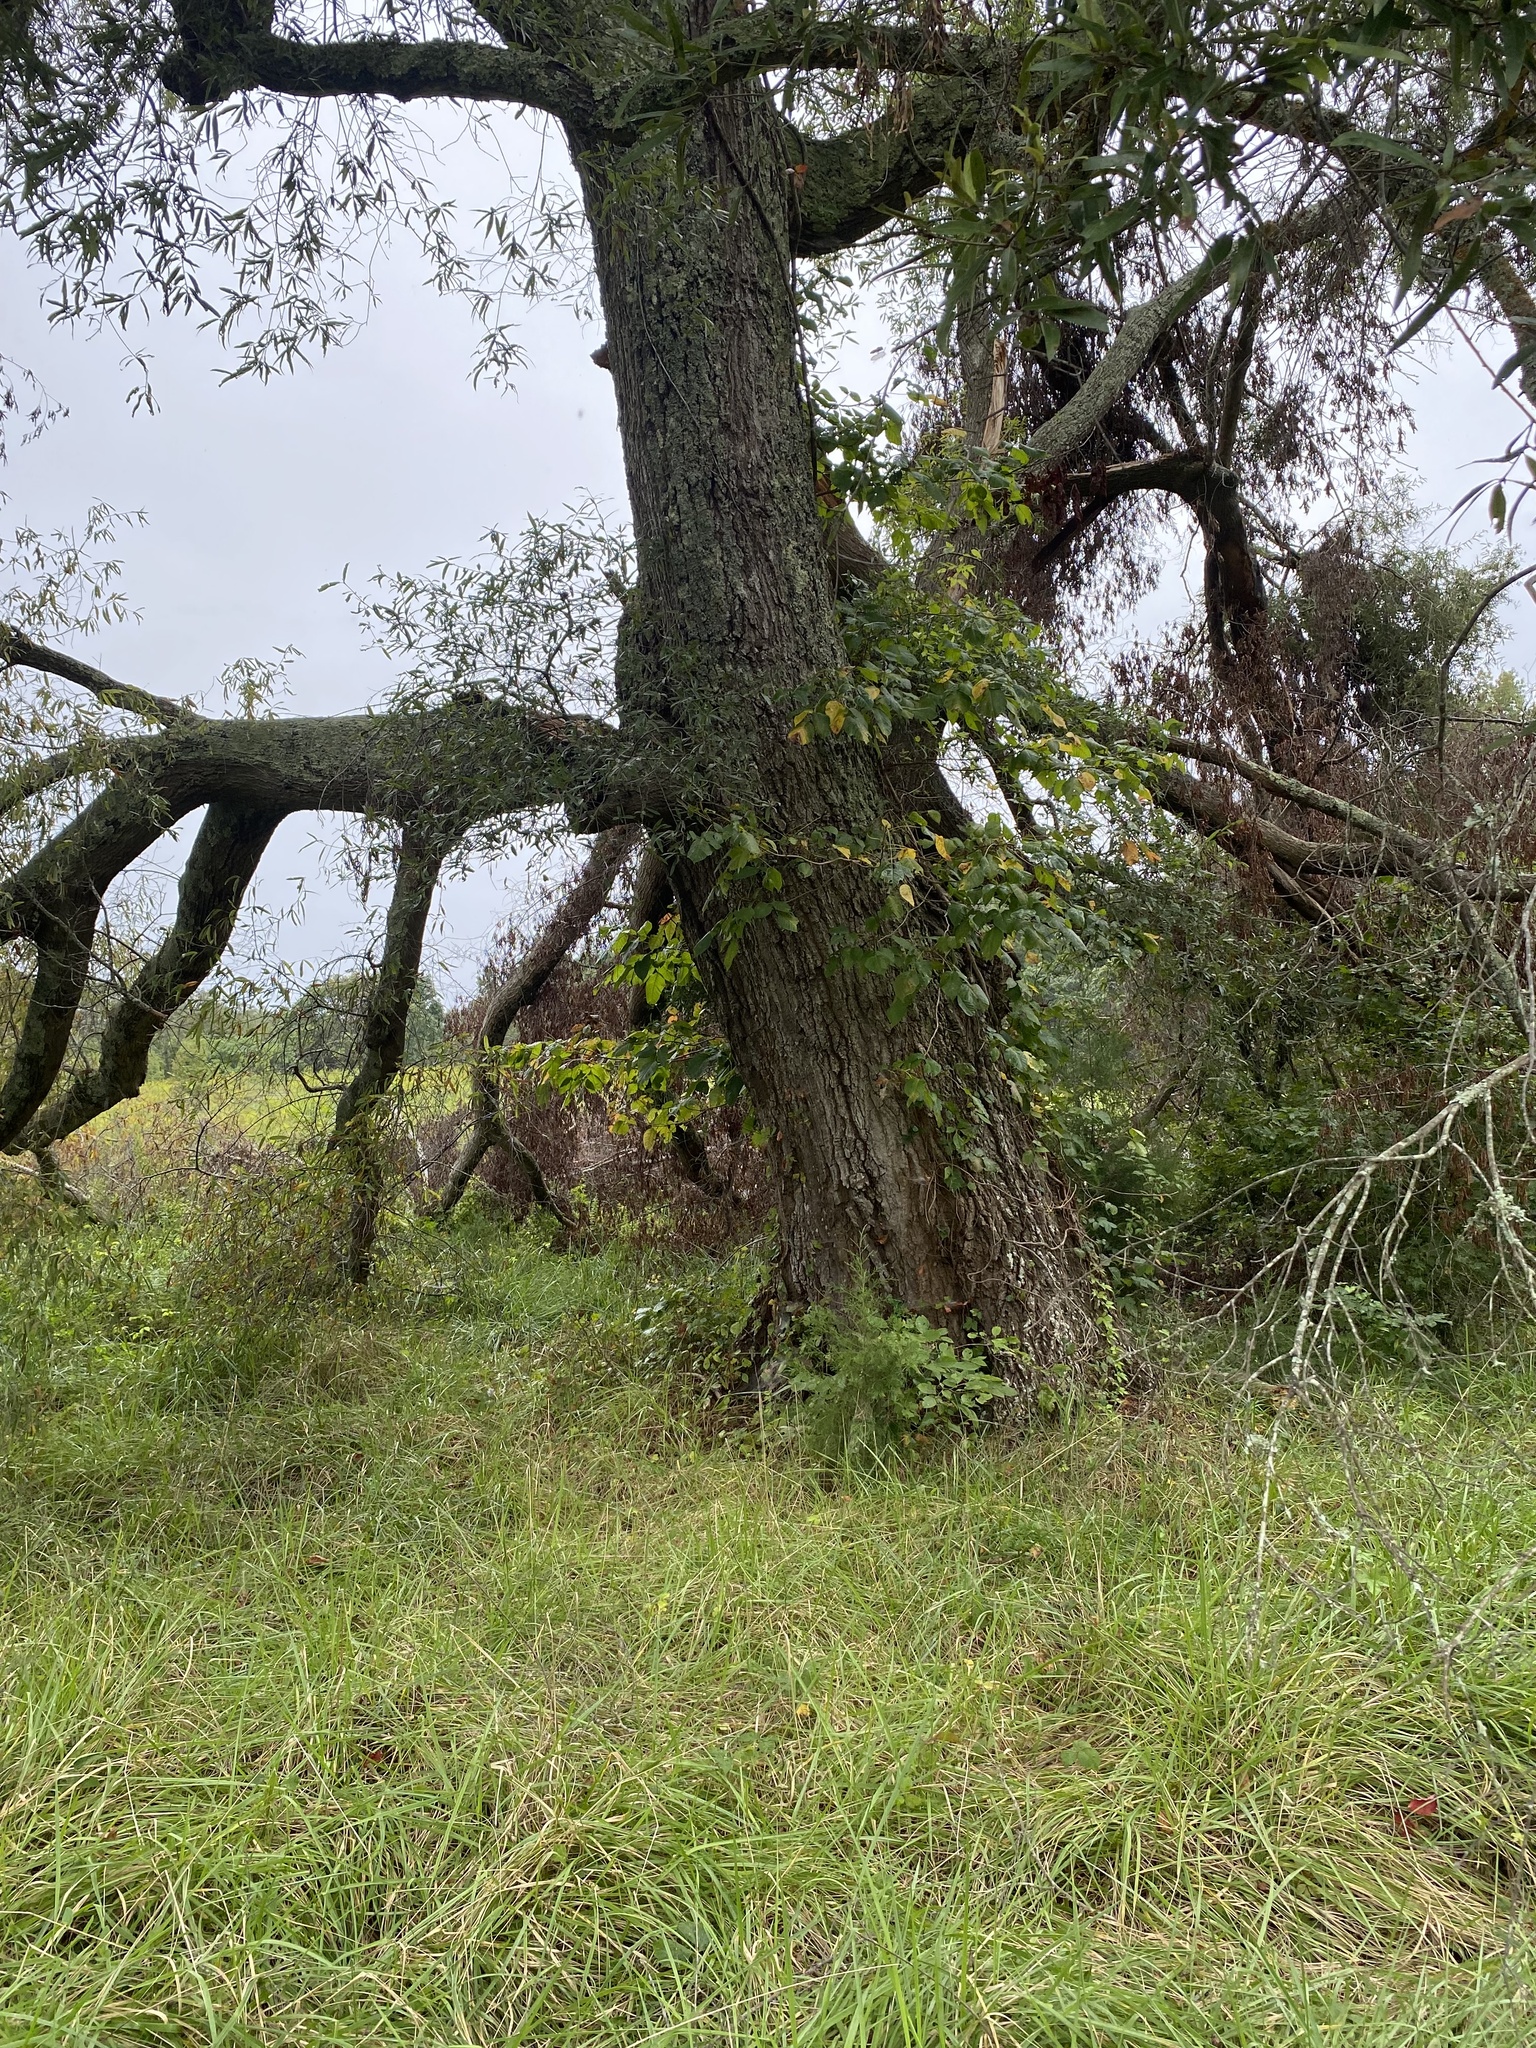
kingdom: Plantae
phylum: Tracheophyta
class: Magnoliopsida
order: Fagales
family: Fagaceae
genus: Quercus
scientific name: Quercus phellos
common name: Willow oak
